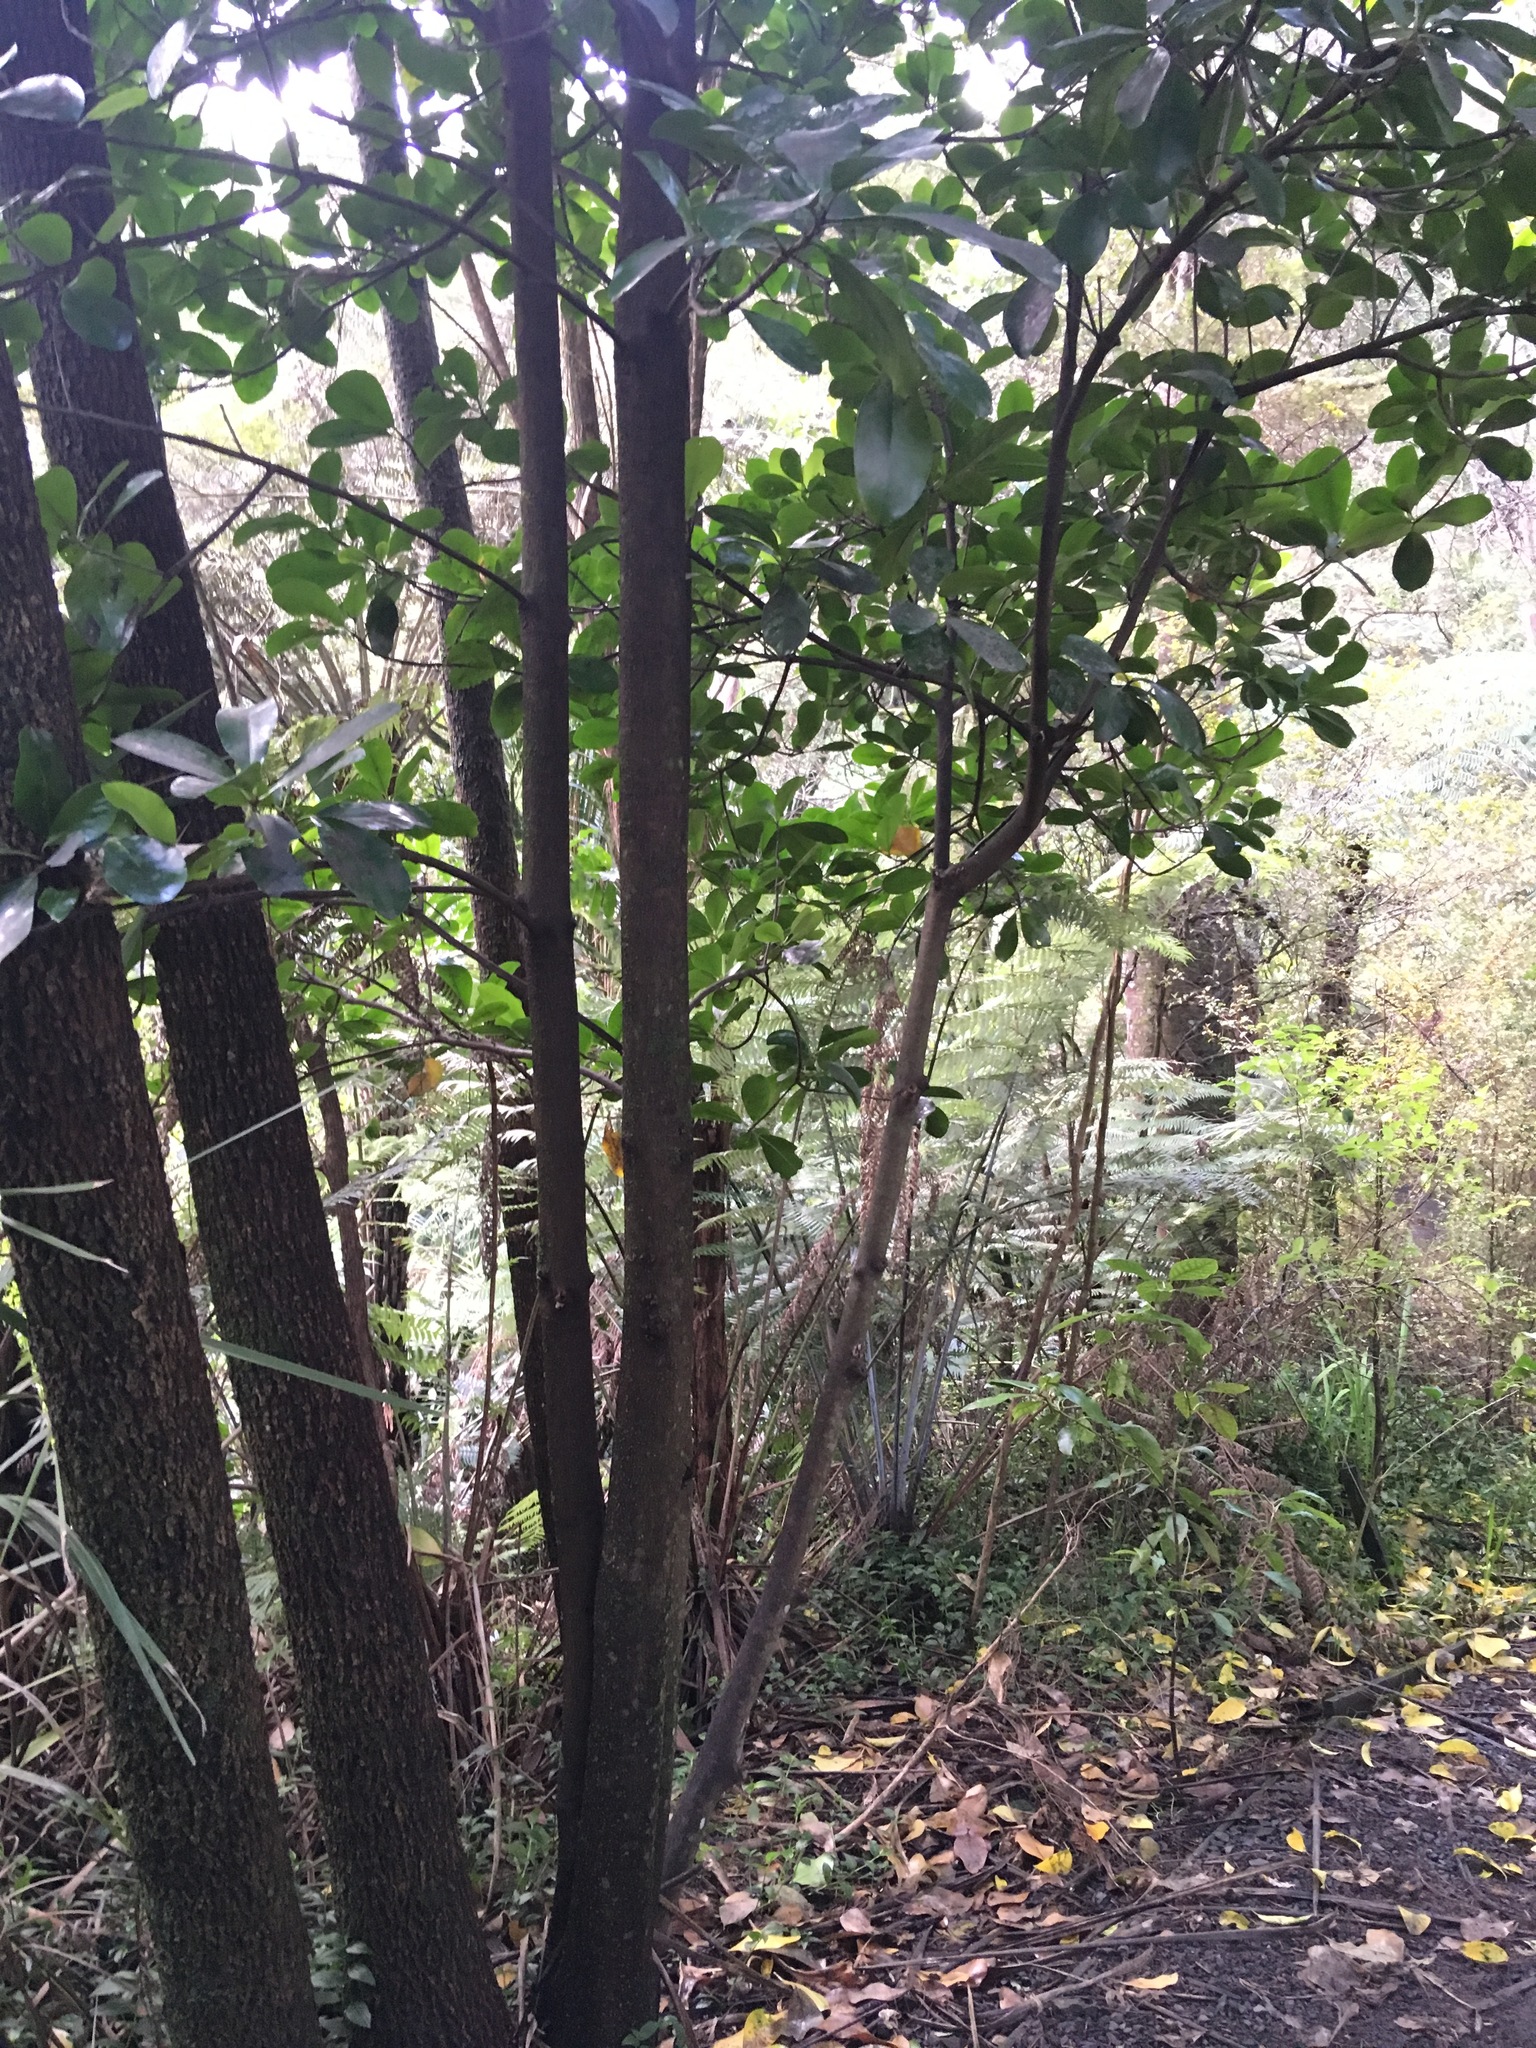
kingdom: Plantae
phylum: Tracheophyta
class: Liliopsida
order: Commelinales
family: Commelinaceae
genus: Tradescantia
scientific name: Tradescantia fluminensis
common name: Wandering-jew
